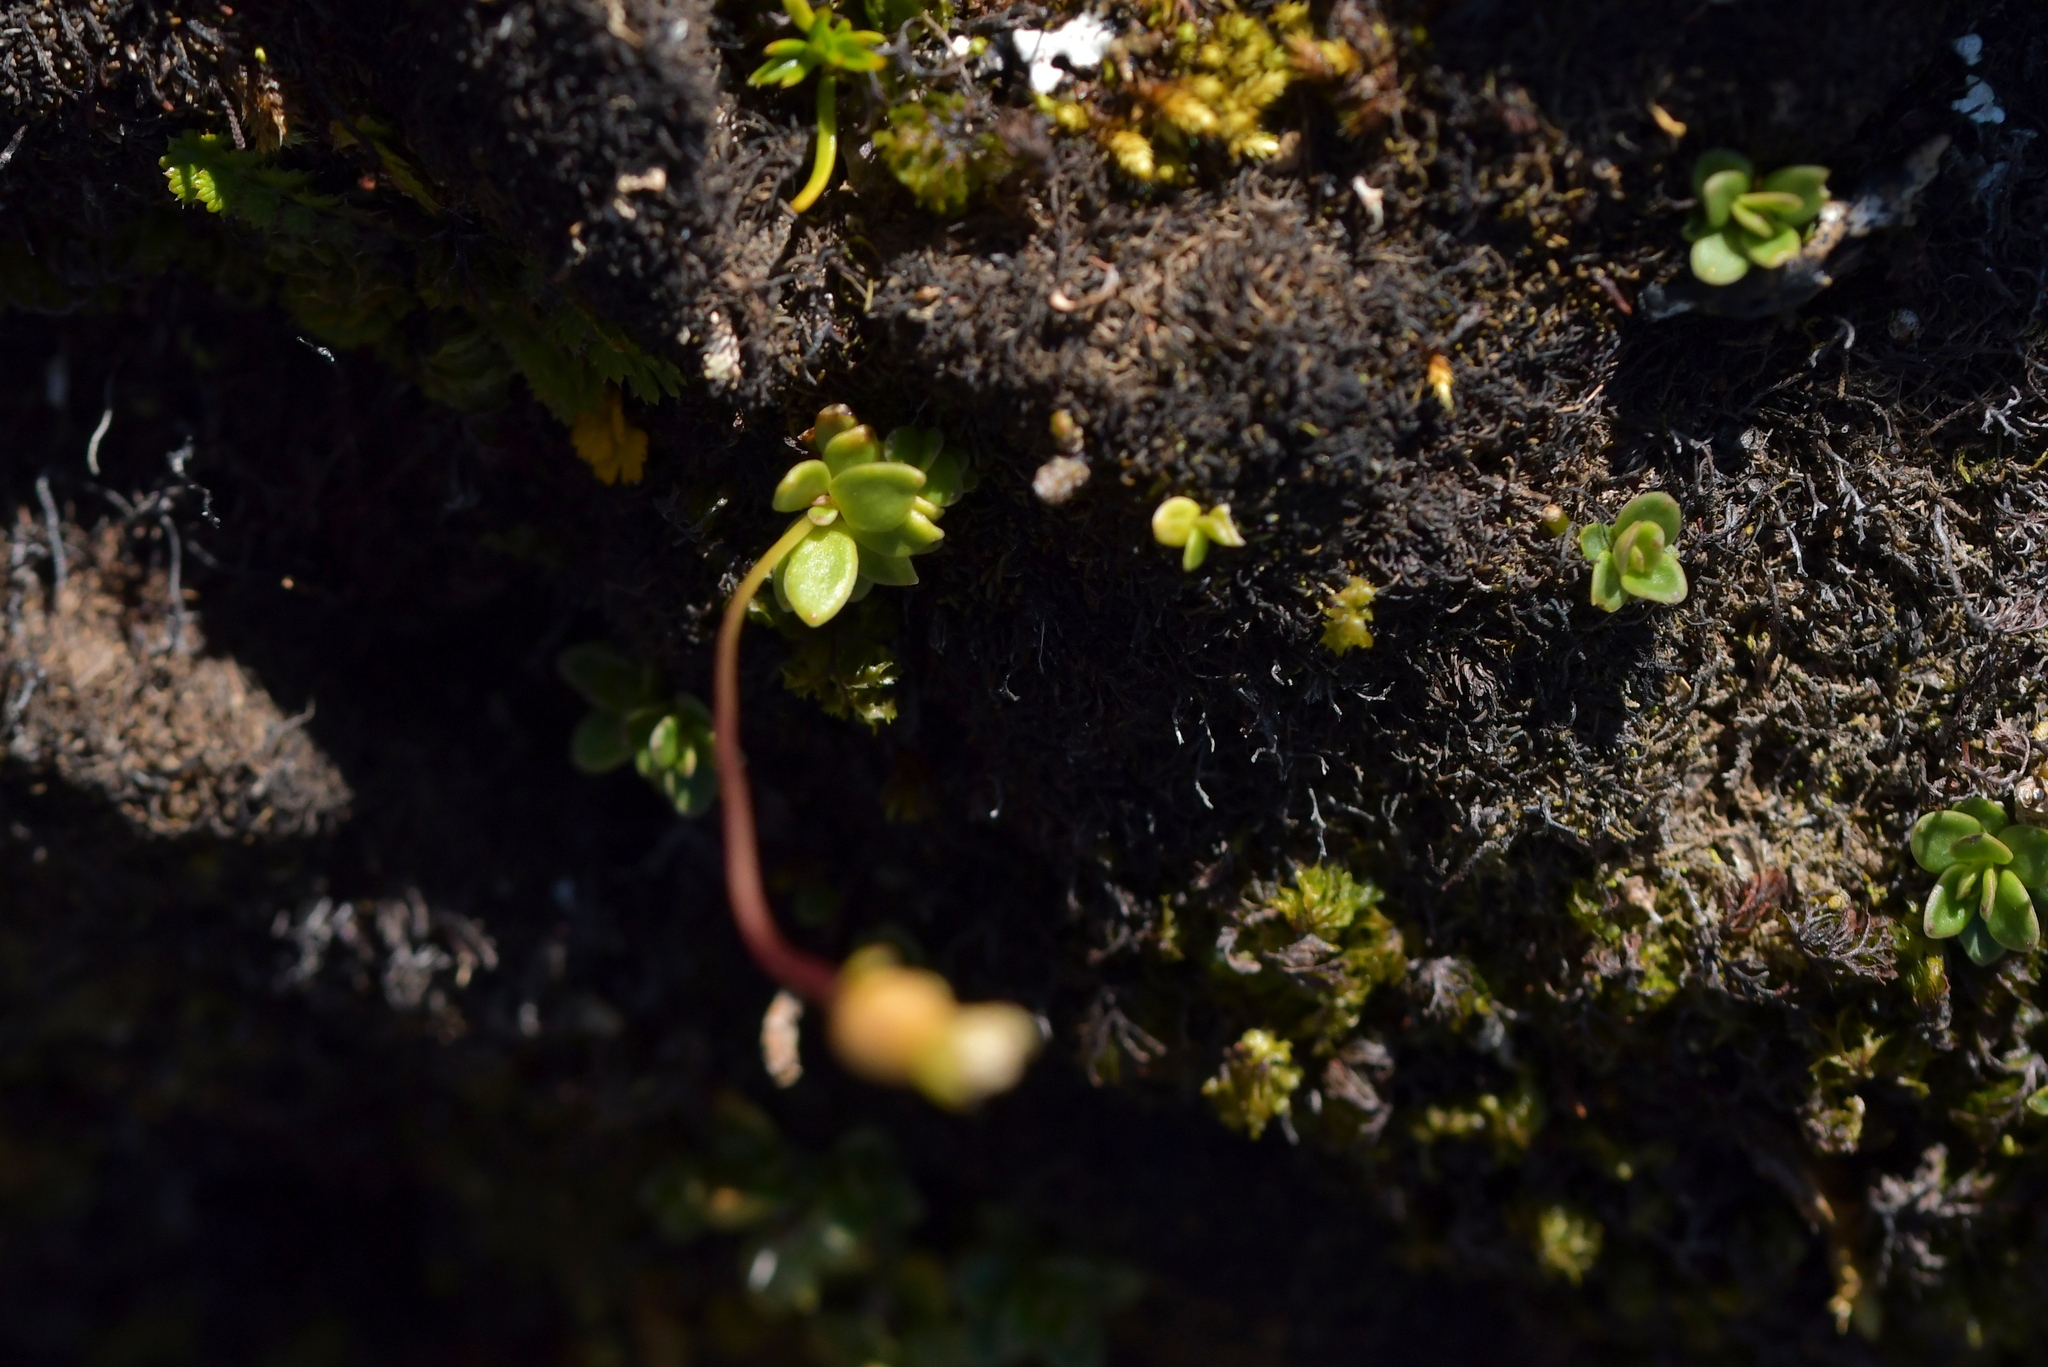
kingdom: Plantae
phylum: Tracheophyta
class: Magnoliopsida
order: Asterales
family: Stylidiaceae
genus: Forstera
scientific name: Forstera tenella
